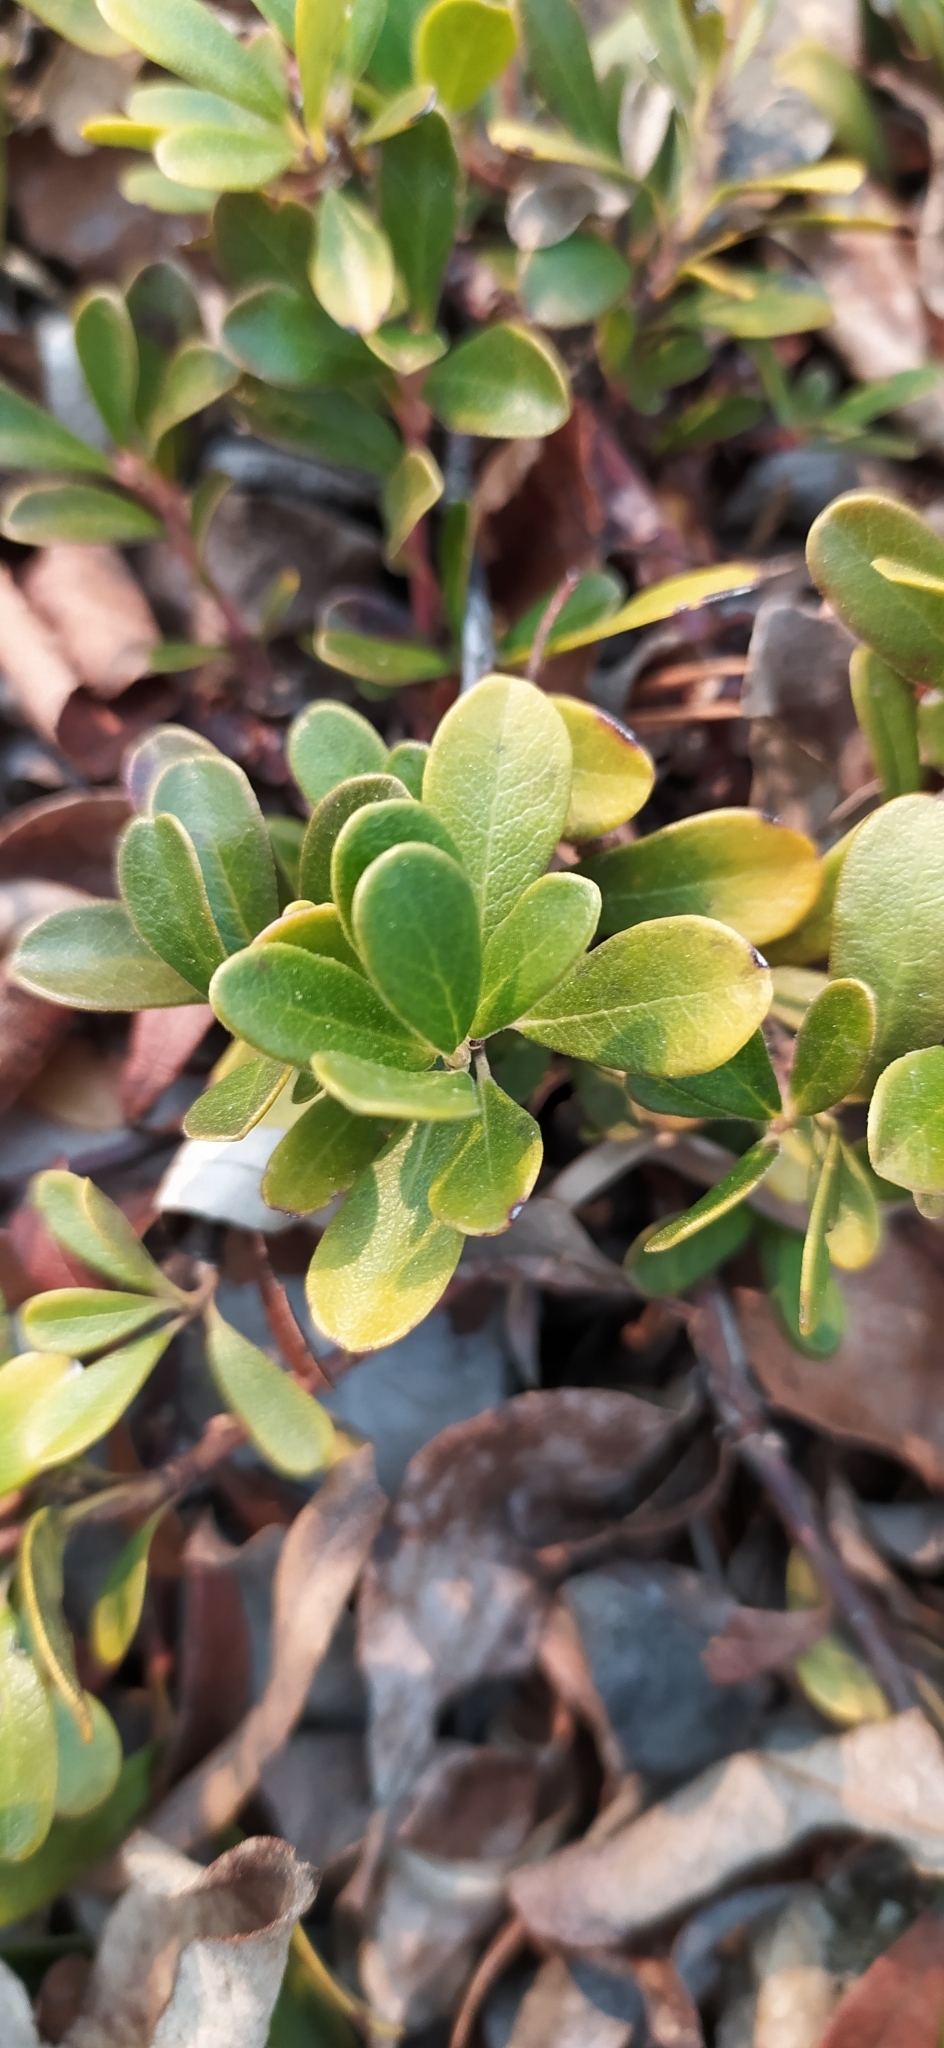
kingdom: Plantae
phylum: Tracheophyta
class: Magnoliopsida
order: Ericales
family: Ericaceae
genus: Arctostaphylos
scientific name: Arctostaphylos uva-ursi
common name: Bearberry
